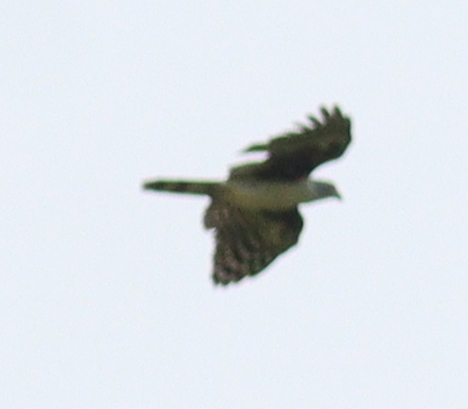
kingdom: Animalia
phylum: Chordata
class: Aves
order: Accipitriformes
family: Accipitridae
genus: Leptodon
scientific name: Leptodon cayanensis
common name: Gray-headed kite
